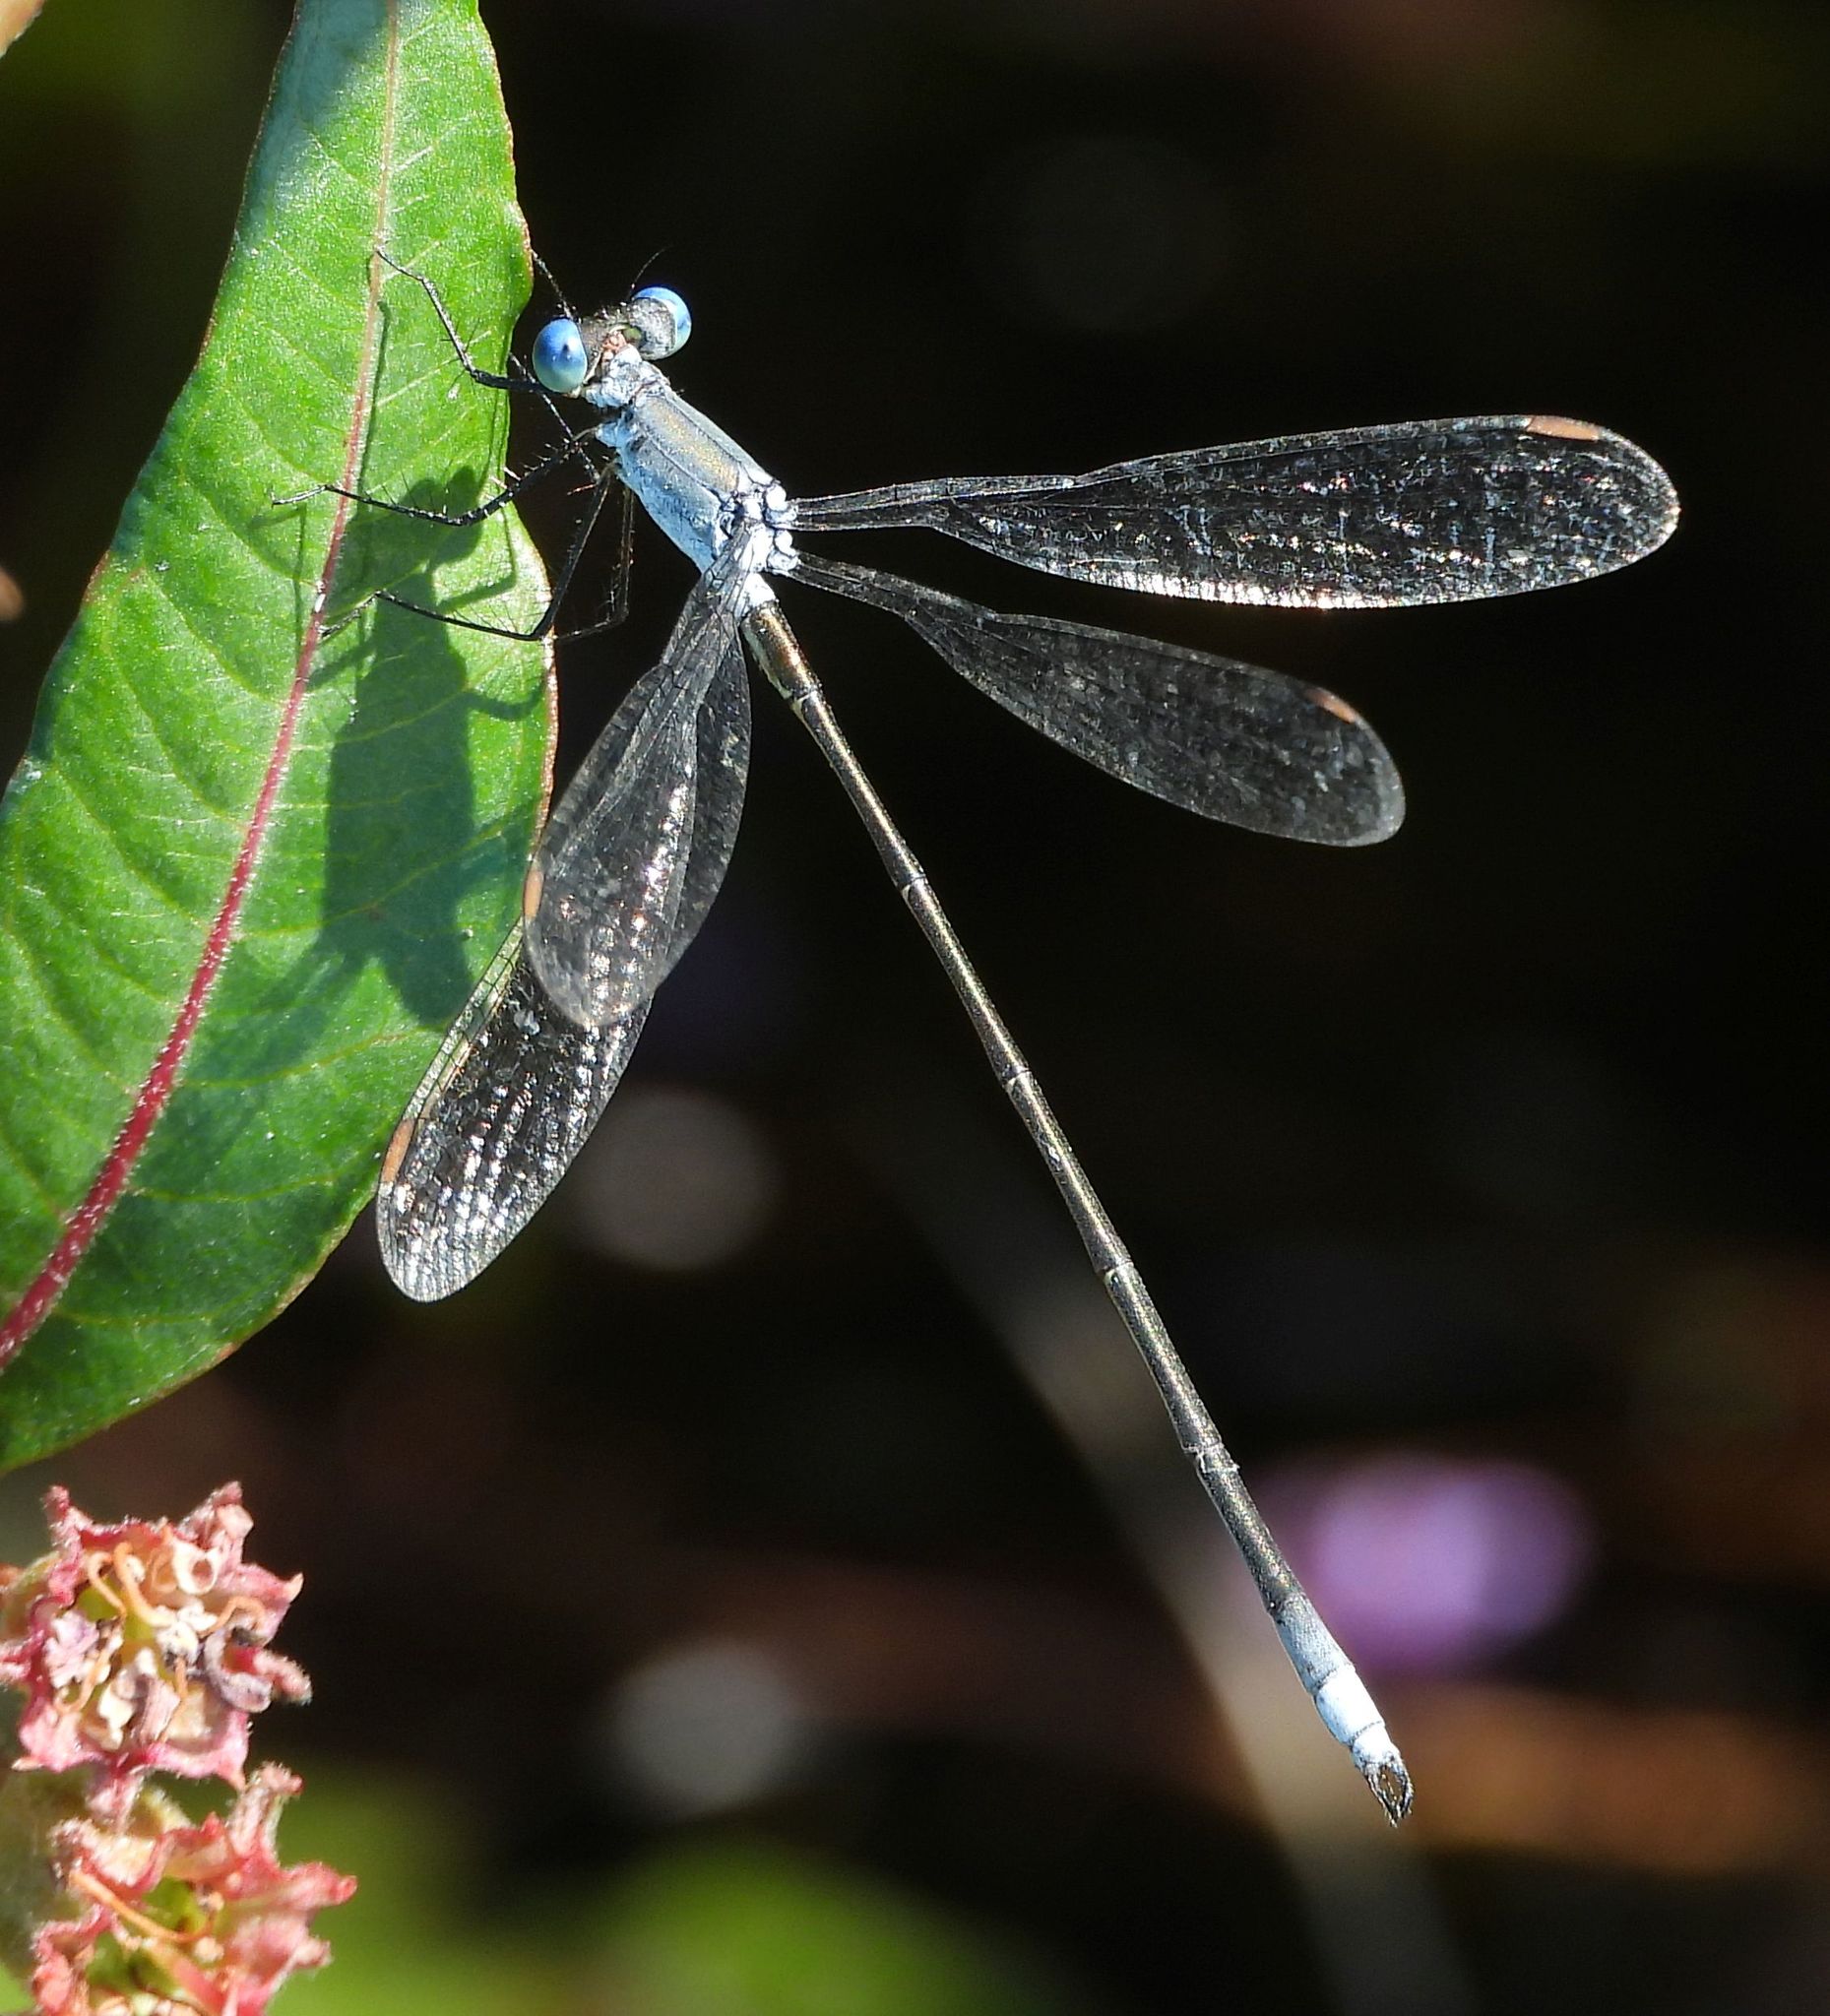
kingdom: Animalia
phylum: Arthropoda
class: Insecta
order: Odonata
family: Lestidae
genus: Lestes
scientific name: Lestes vigilax
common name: Swamp spreadwing
